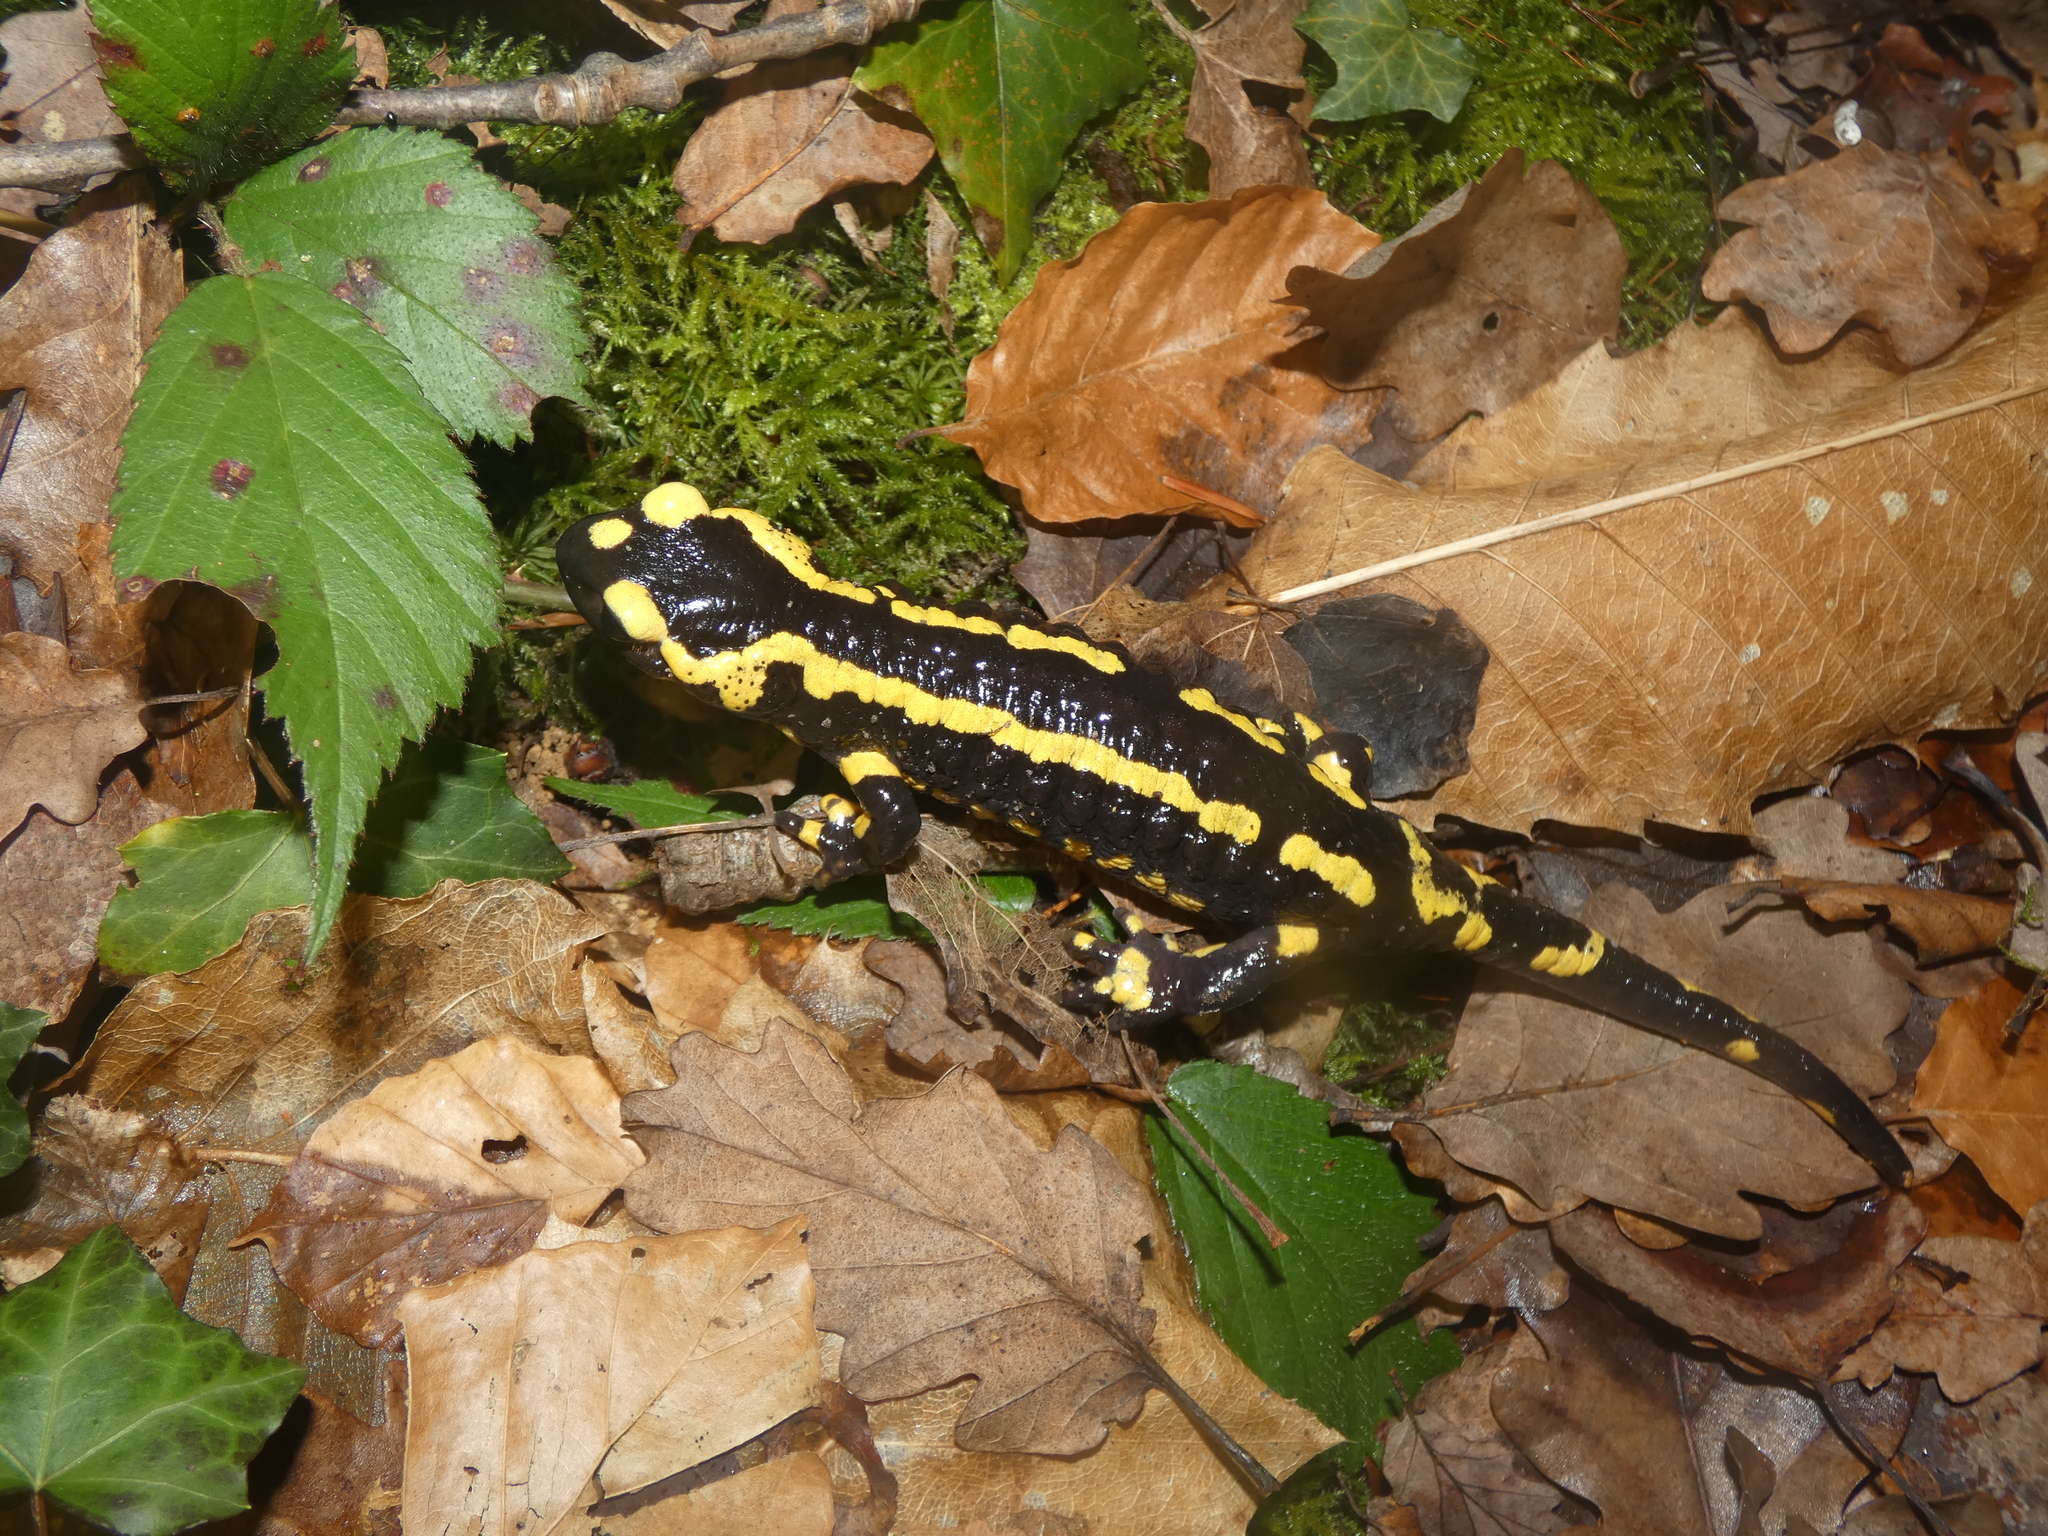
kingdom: Animalia
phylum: Chordata
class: Amphibia
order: Caudata
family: Salamandridae
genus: Salamandra
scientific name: Salamandra salamandra
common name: Fire salamander
